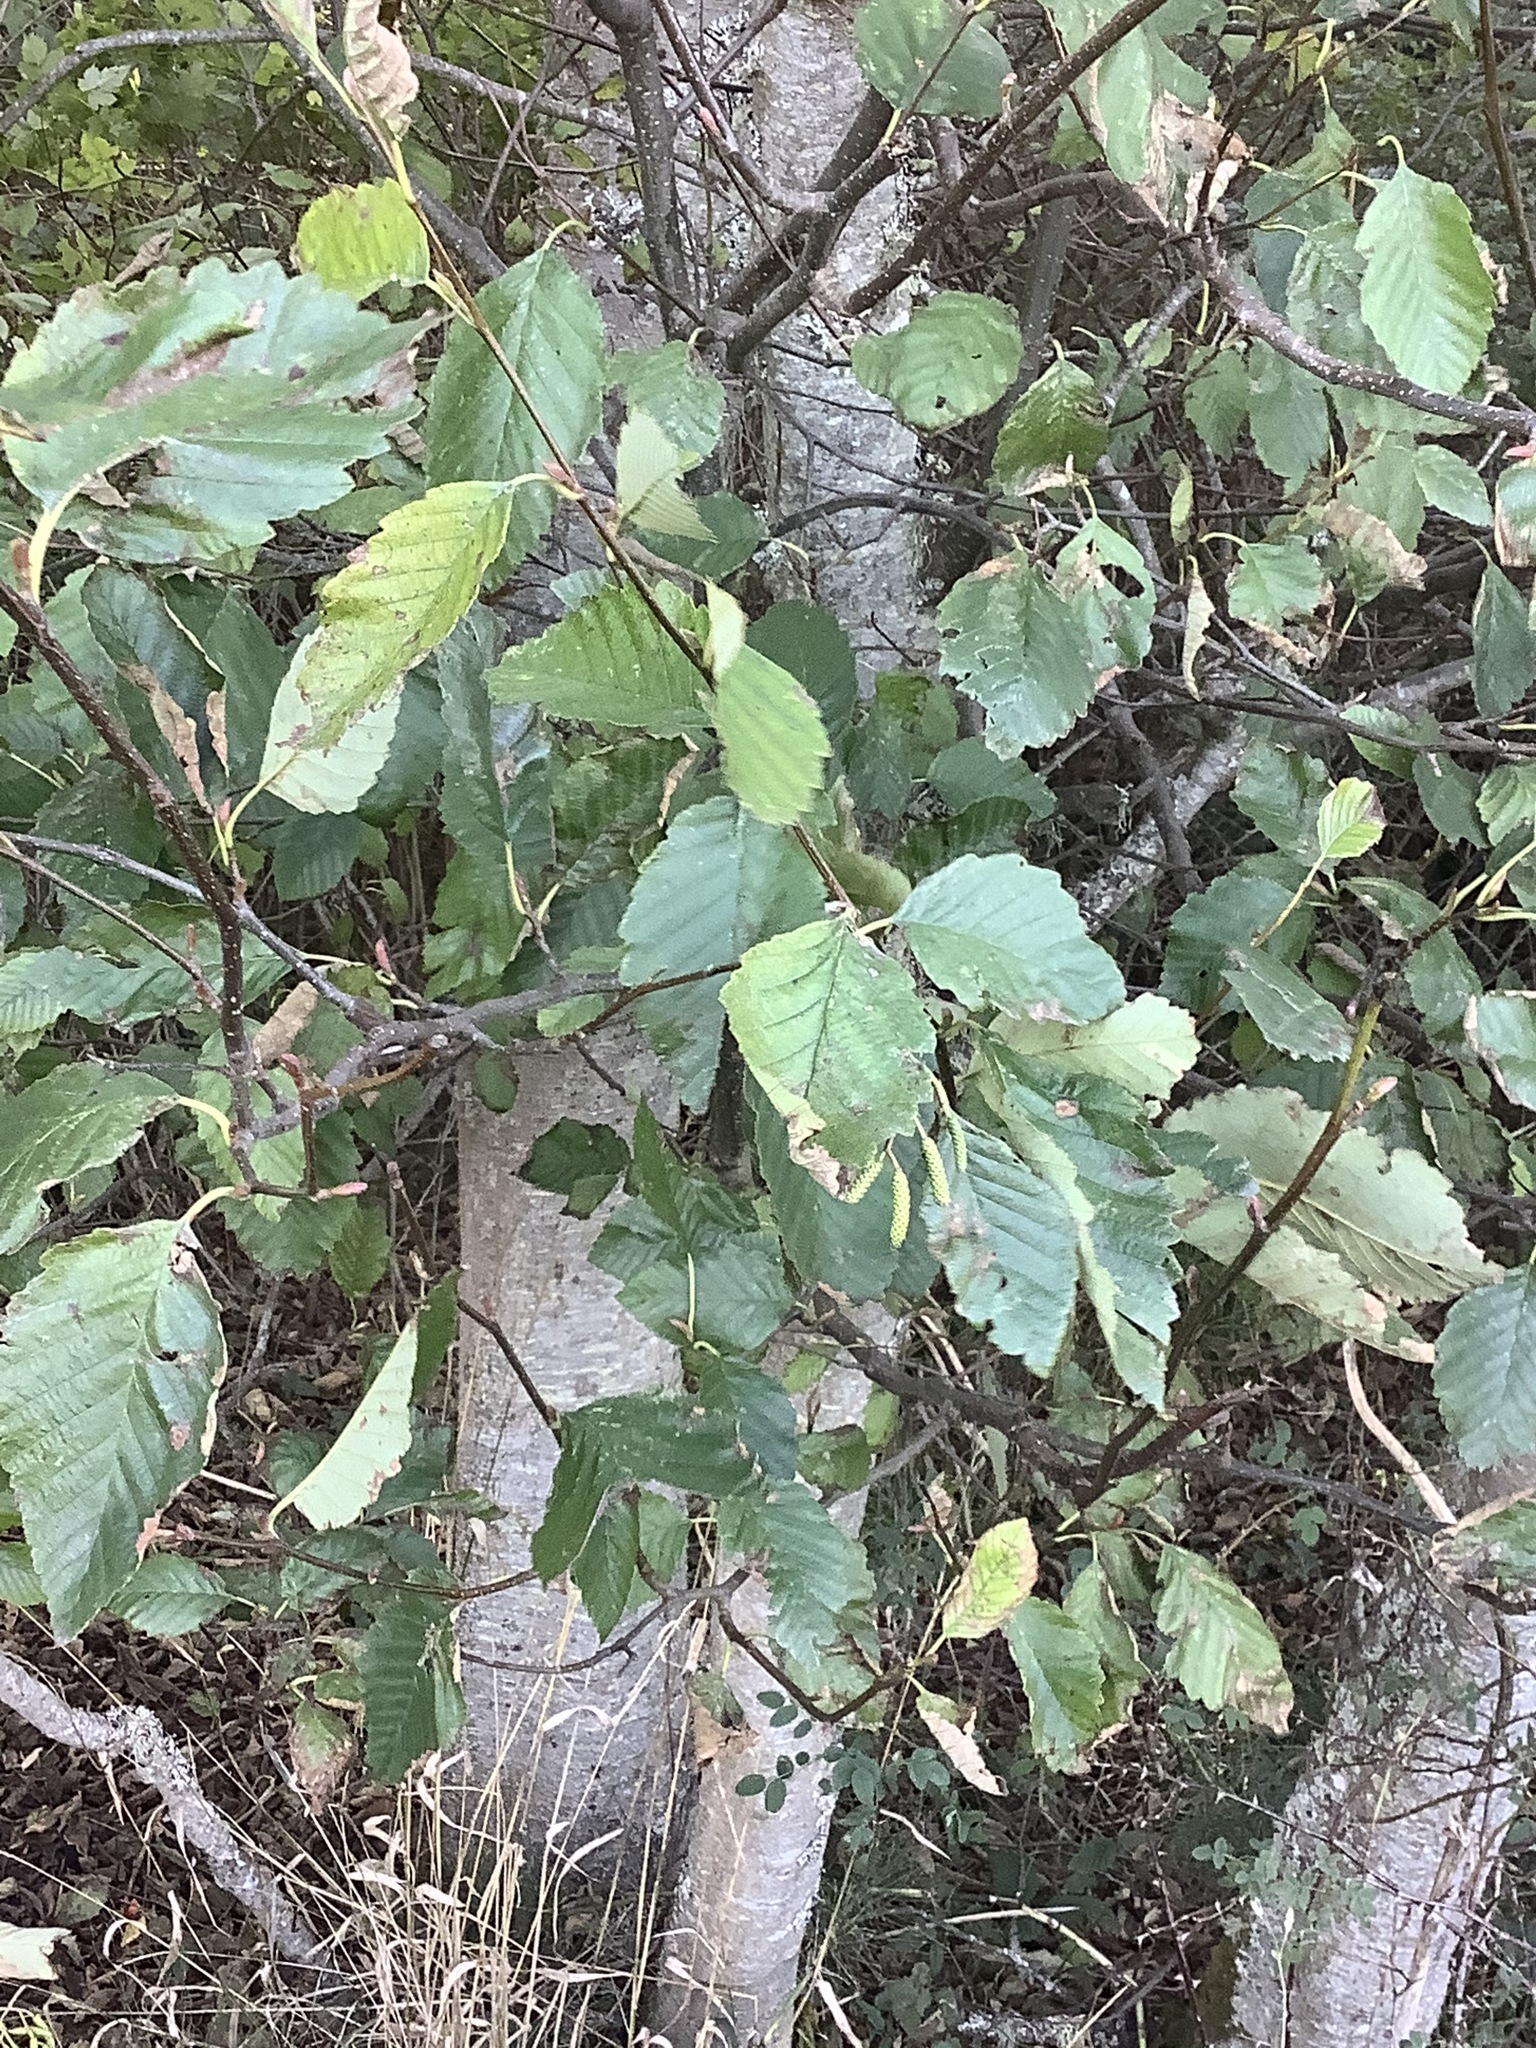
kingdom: Plantae
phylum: Tracheophyta
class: Magnoliopsida
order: Fagales
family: Betulaceae
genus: Alnus
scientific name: Alnus rubra
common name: Red alder
